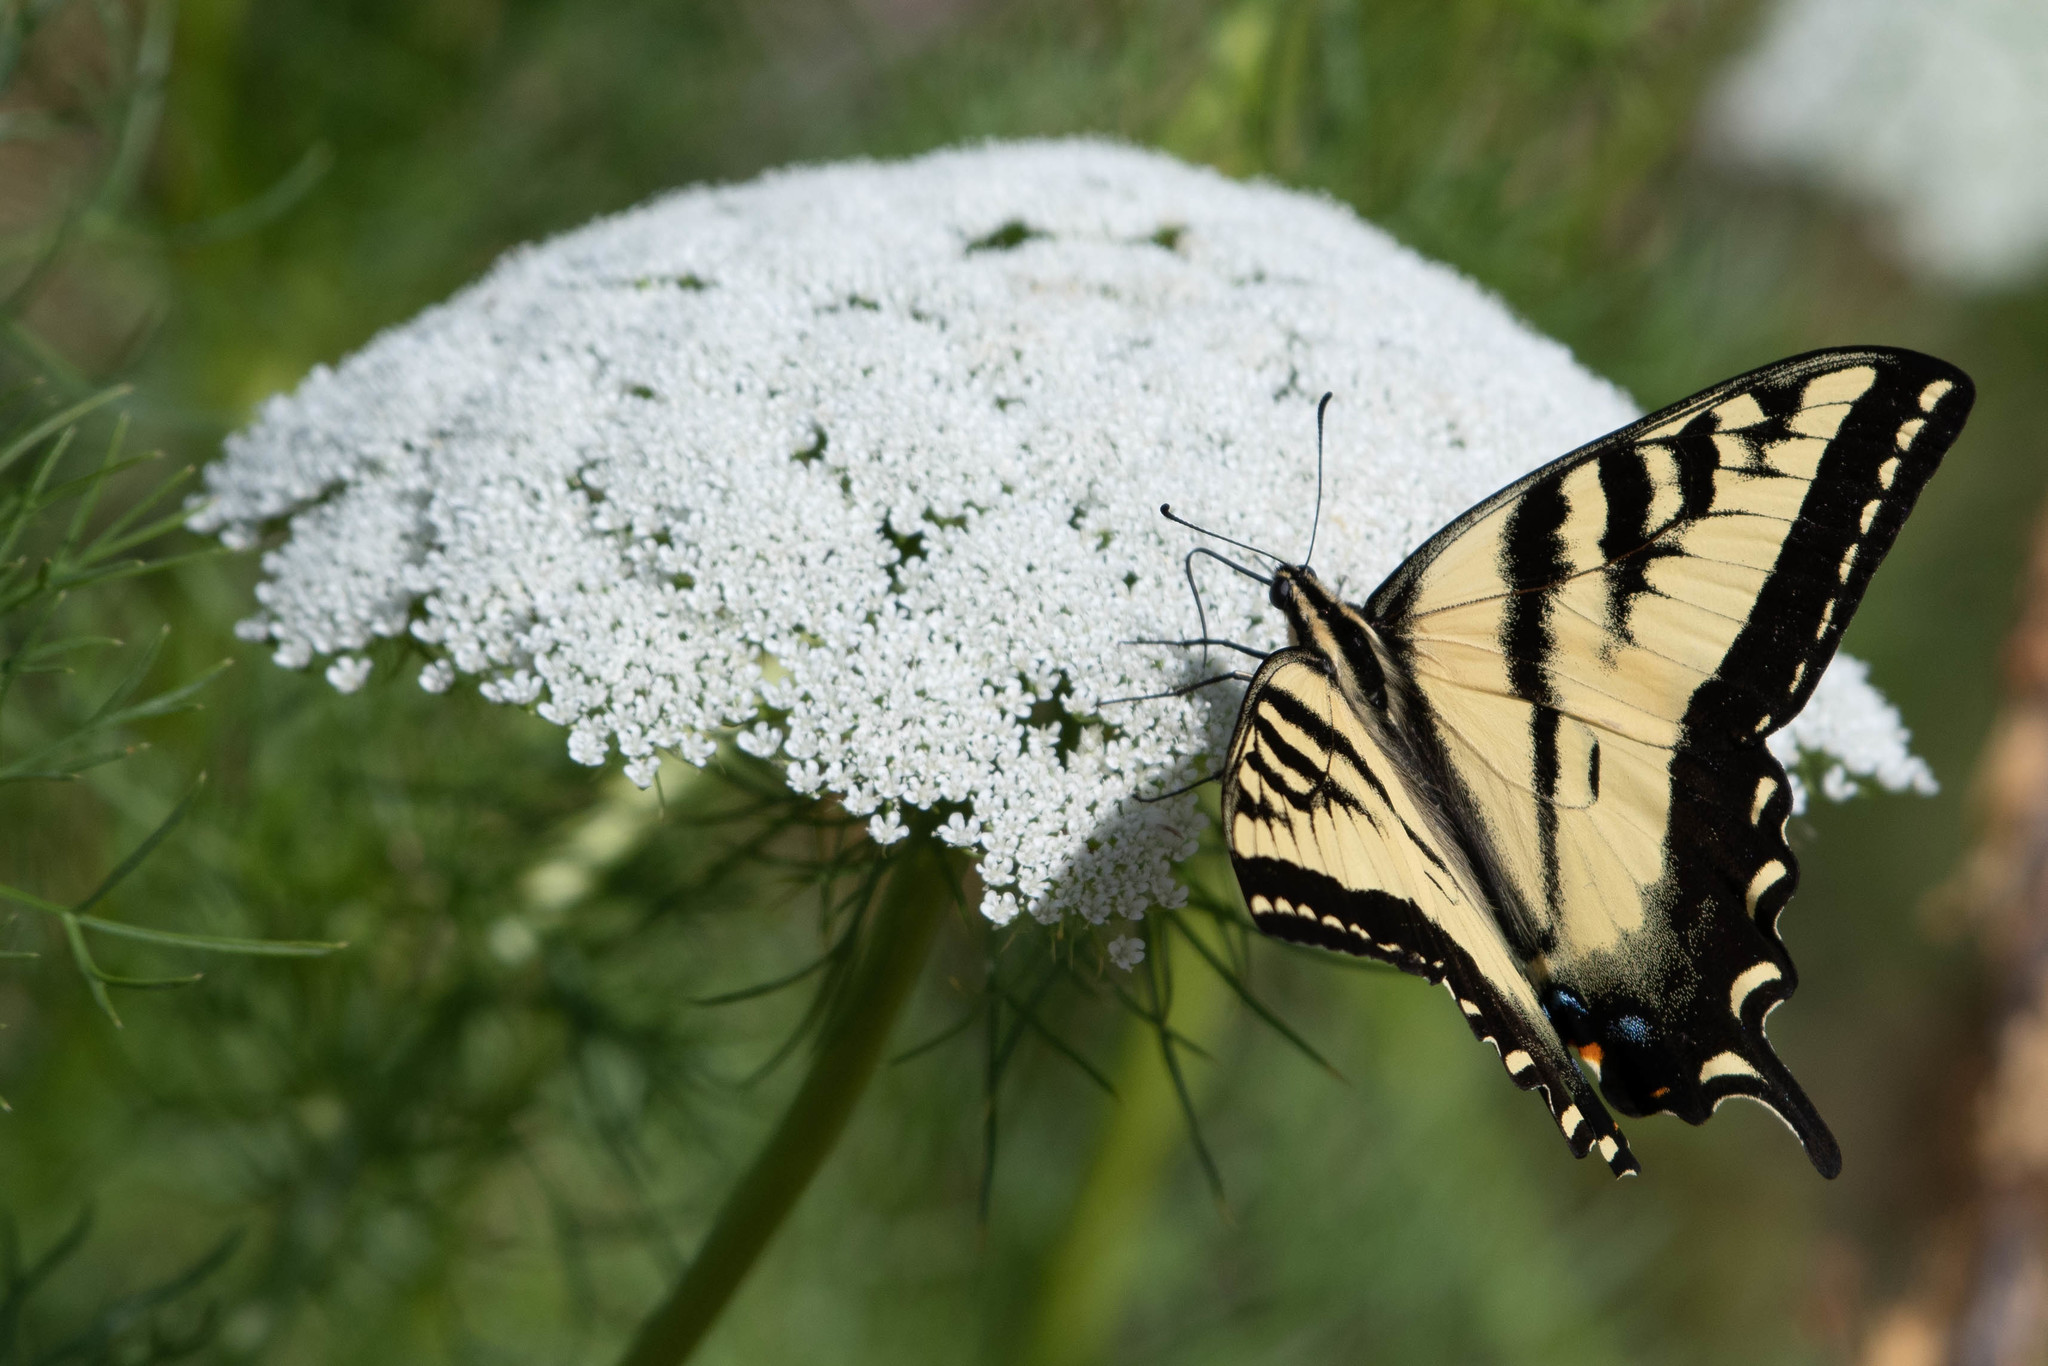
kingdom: Animalia
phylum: Arthropoda
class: Insecta
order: Lepidoptera
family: Papilionidae
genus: Papilio
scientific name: Papilio rutulus
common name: Western tiger swallowtail
